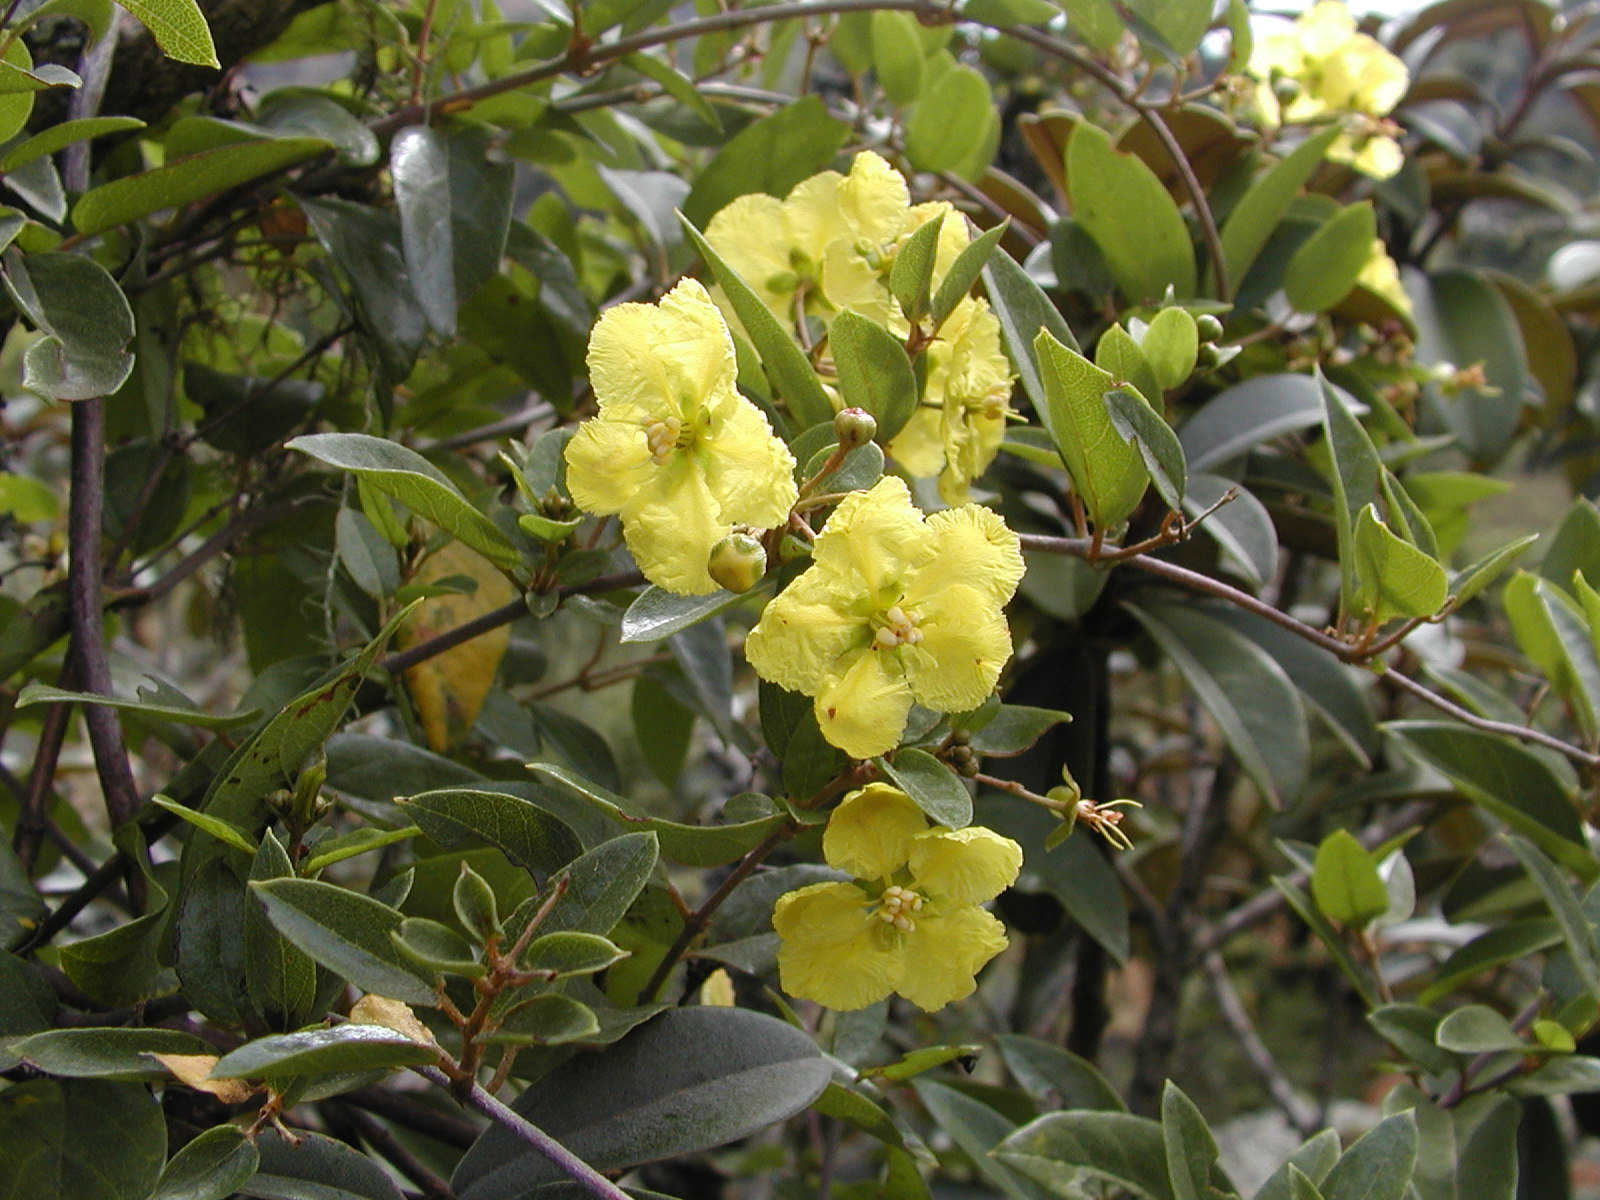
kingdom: Plantae
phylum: Tracheophyta
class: Magnoliopsida
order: Malpighiales
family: Malpighiaceae
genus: Sphedamnocarpus
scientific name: Sphedamnocarpus pruriens
